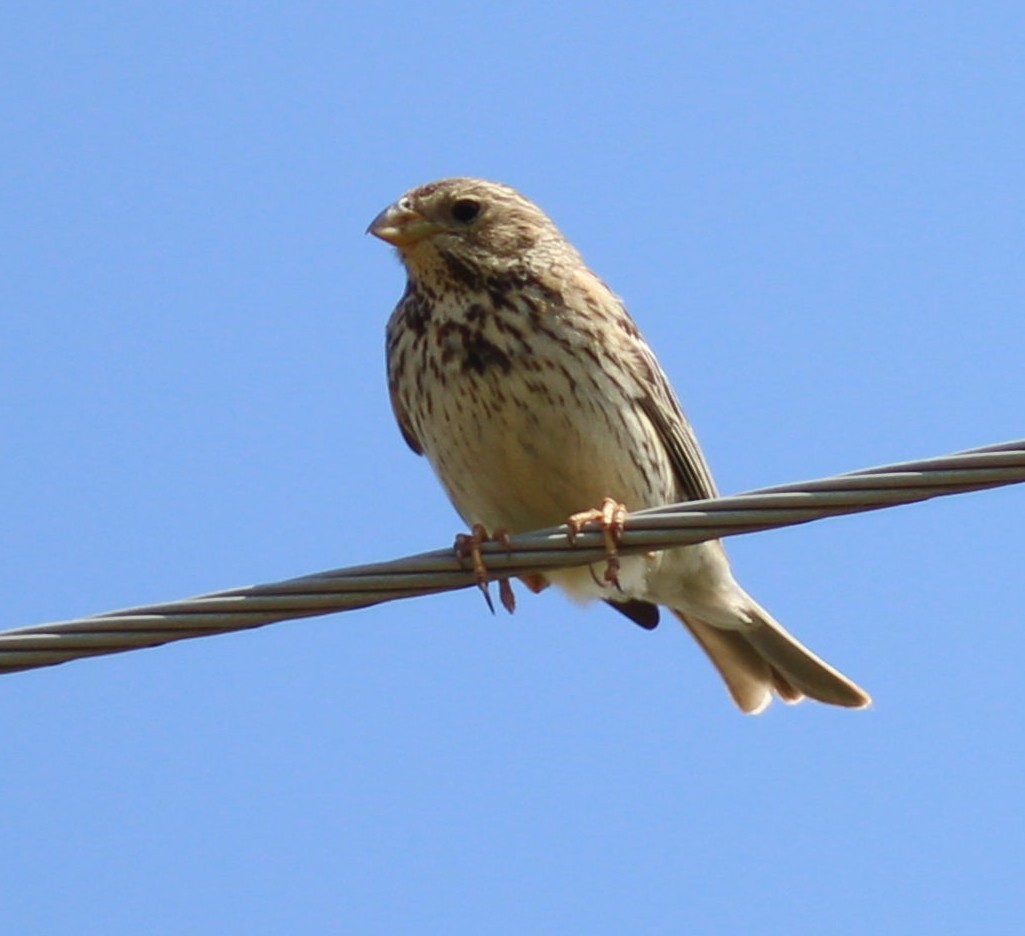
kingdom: Animalia
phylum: Chordata
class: Aves
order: Passeriformes
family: Emberizidae
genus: Emberiza
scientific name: Emberiza calandra
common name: Corn bunting
